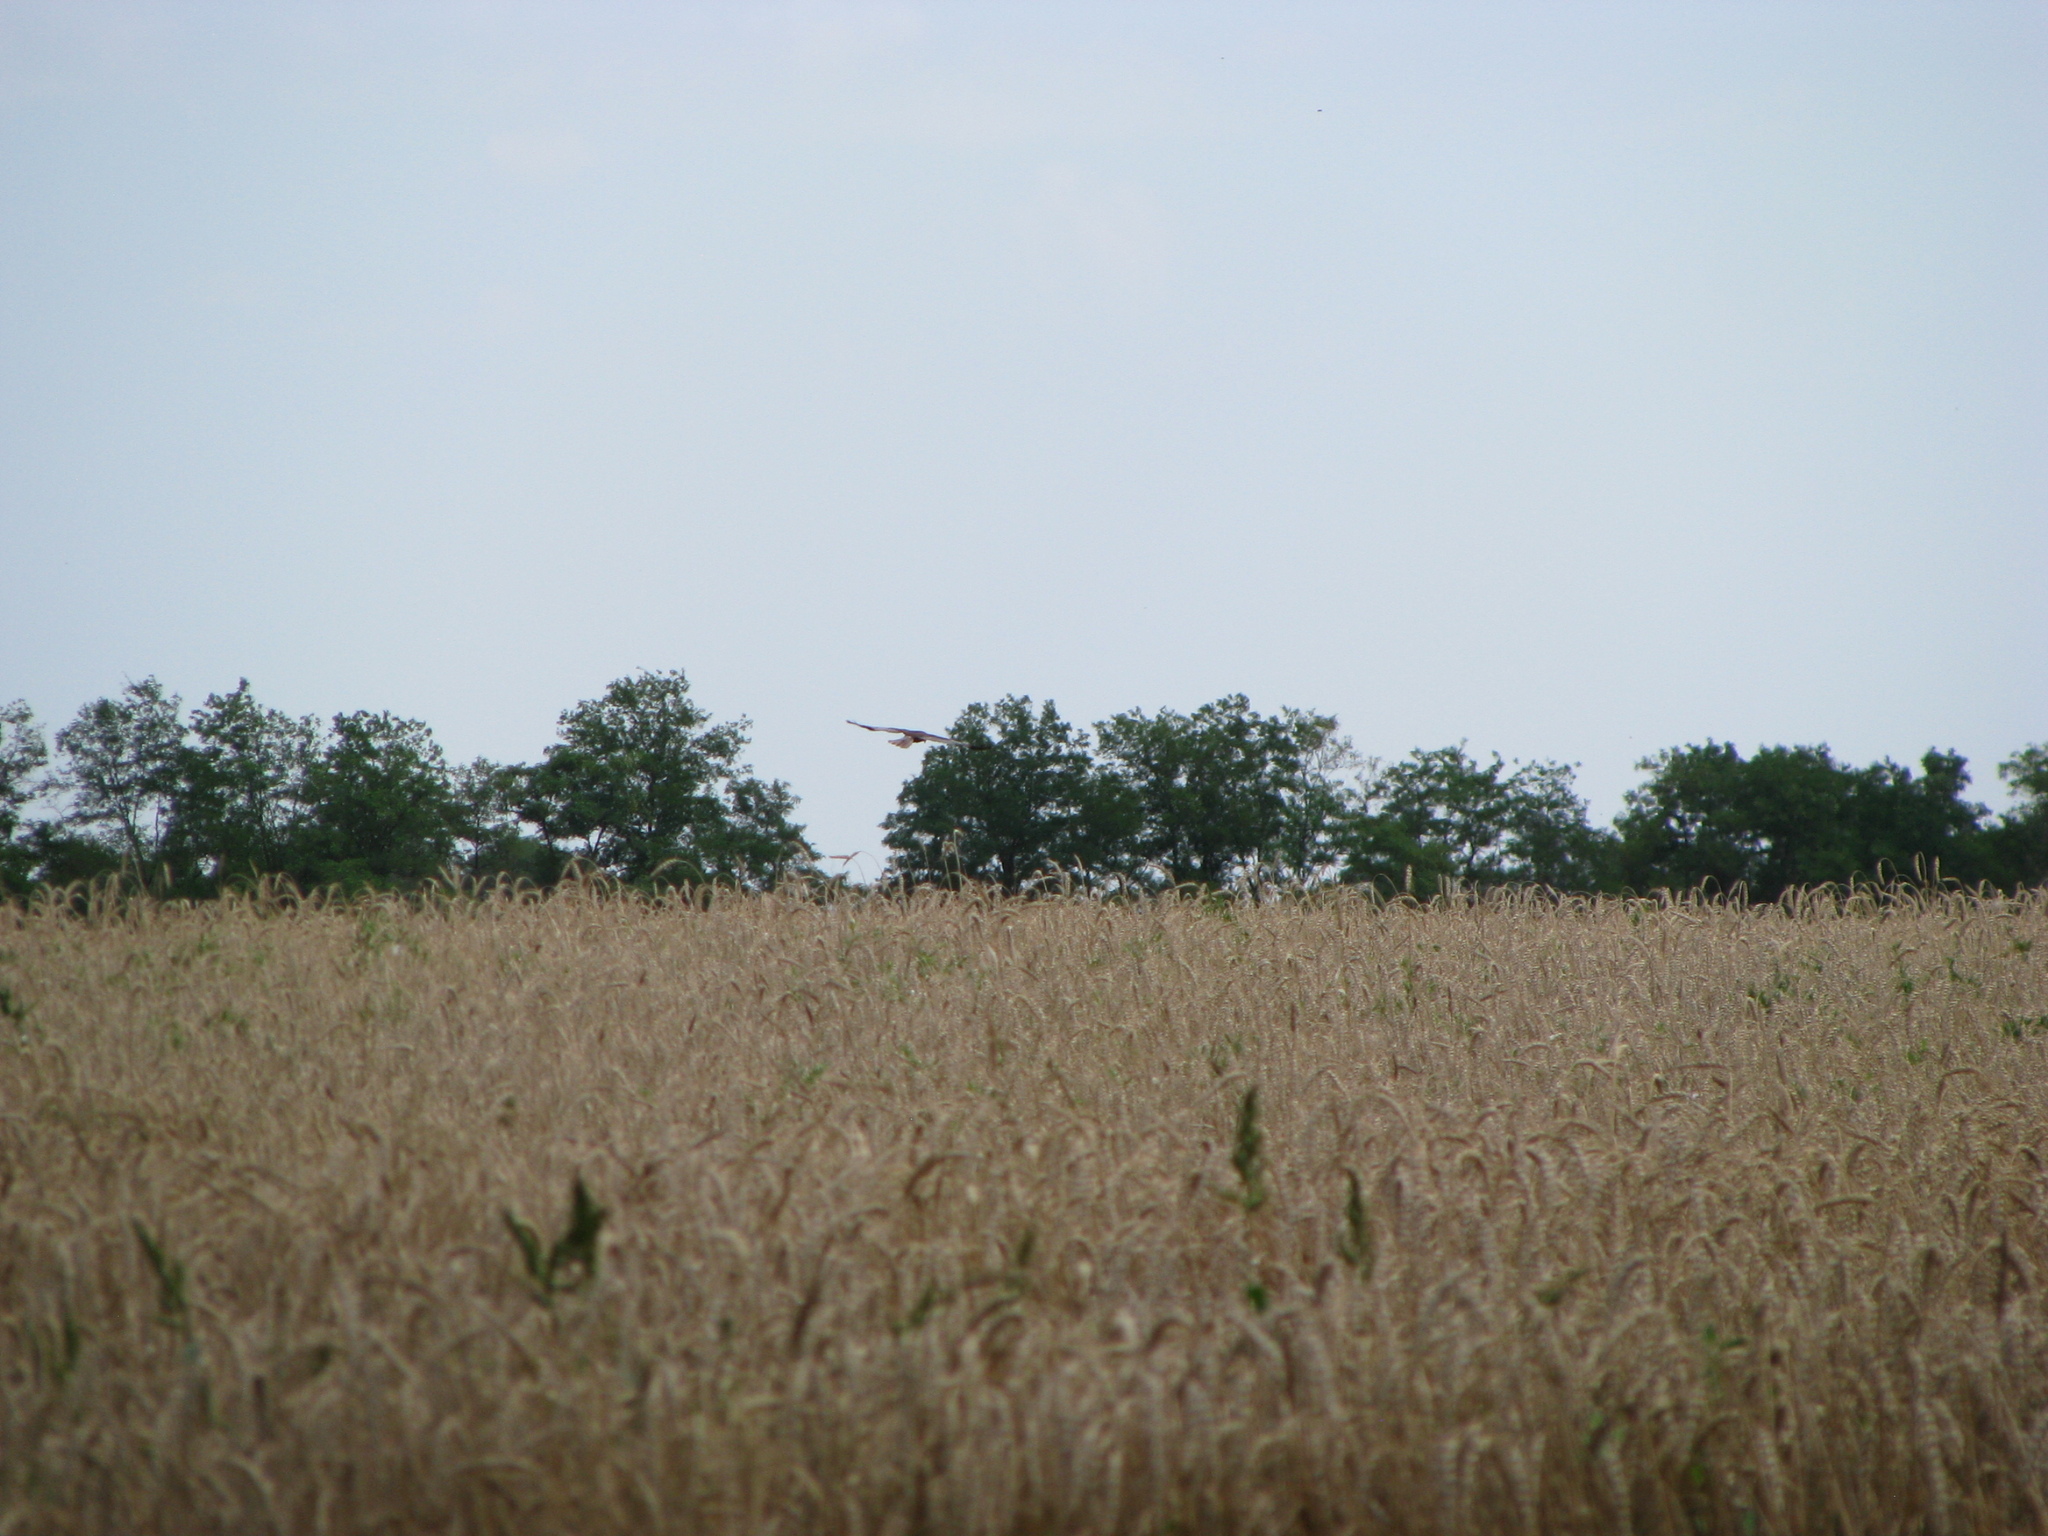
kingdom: Animalia
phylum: Chordata
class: Aves
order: Accipitriformes
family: Accipitridae
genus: Circus
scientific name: Circus aeruginosus
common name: Western marsh harrier
